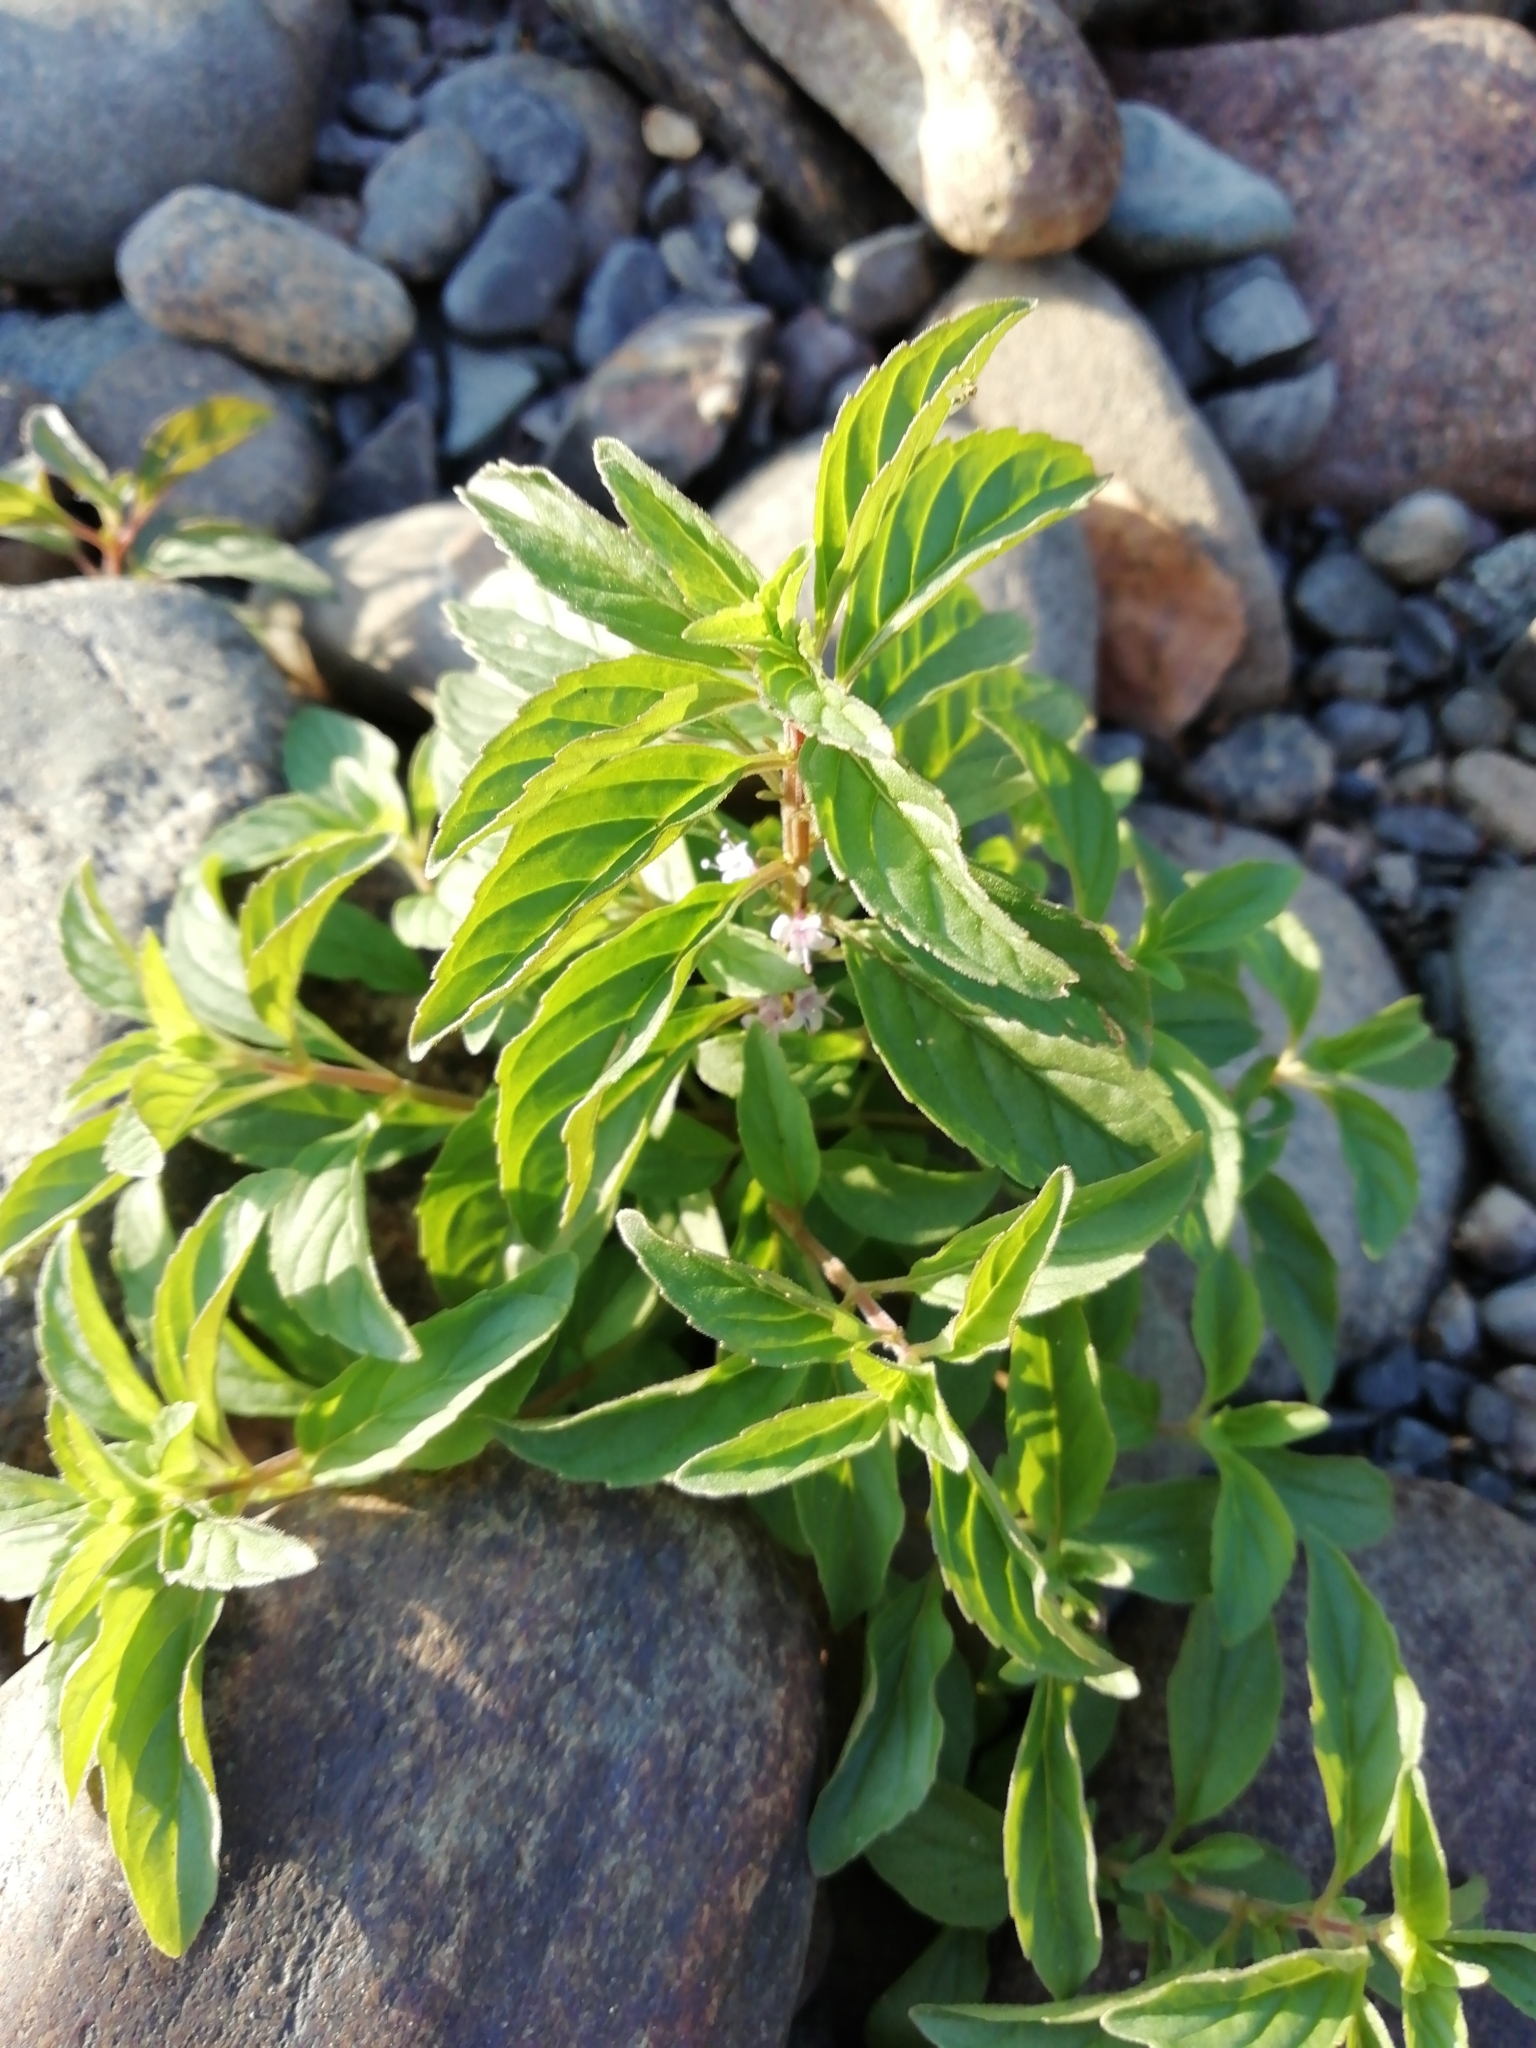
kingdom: Plantae
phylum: Tracheophyta
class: Magnoliopsida
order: Lamiales
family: Lamiaceae
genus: Mentha
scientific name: Mentha arvensis
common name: Corn mint
